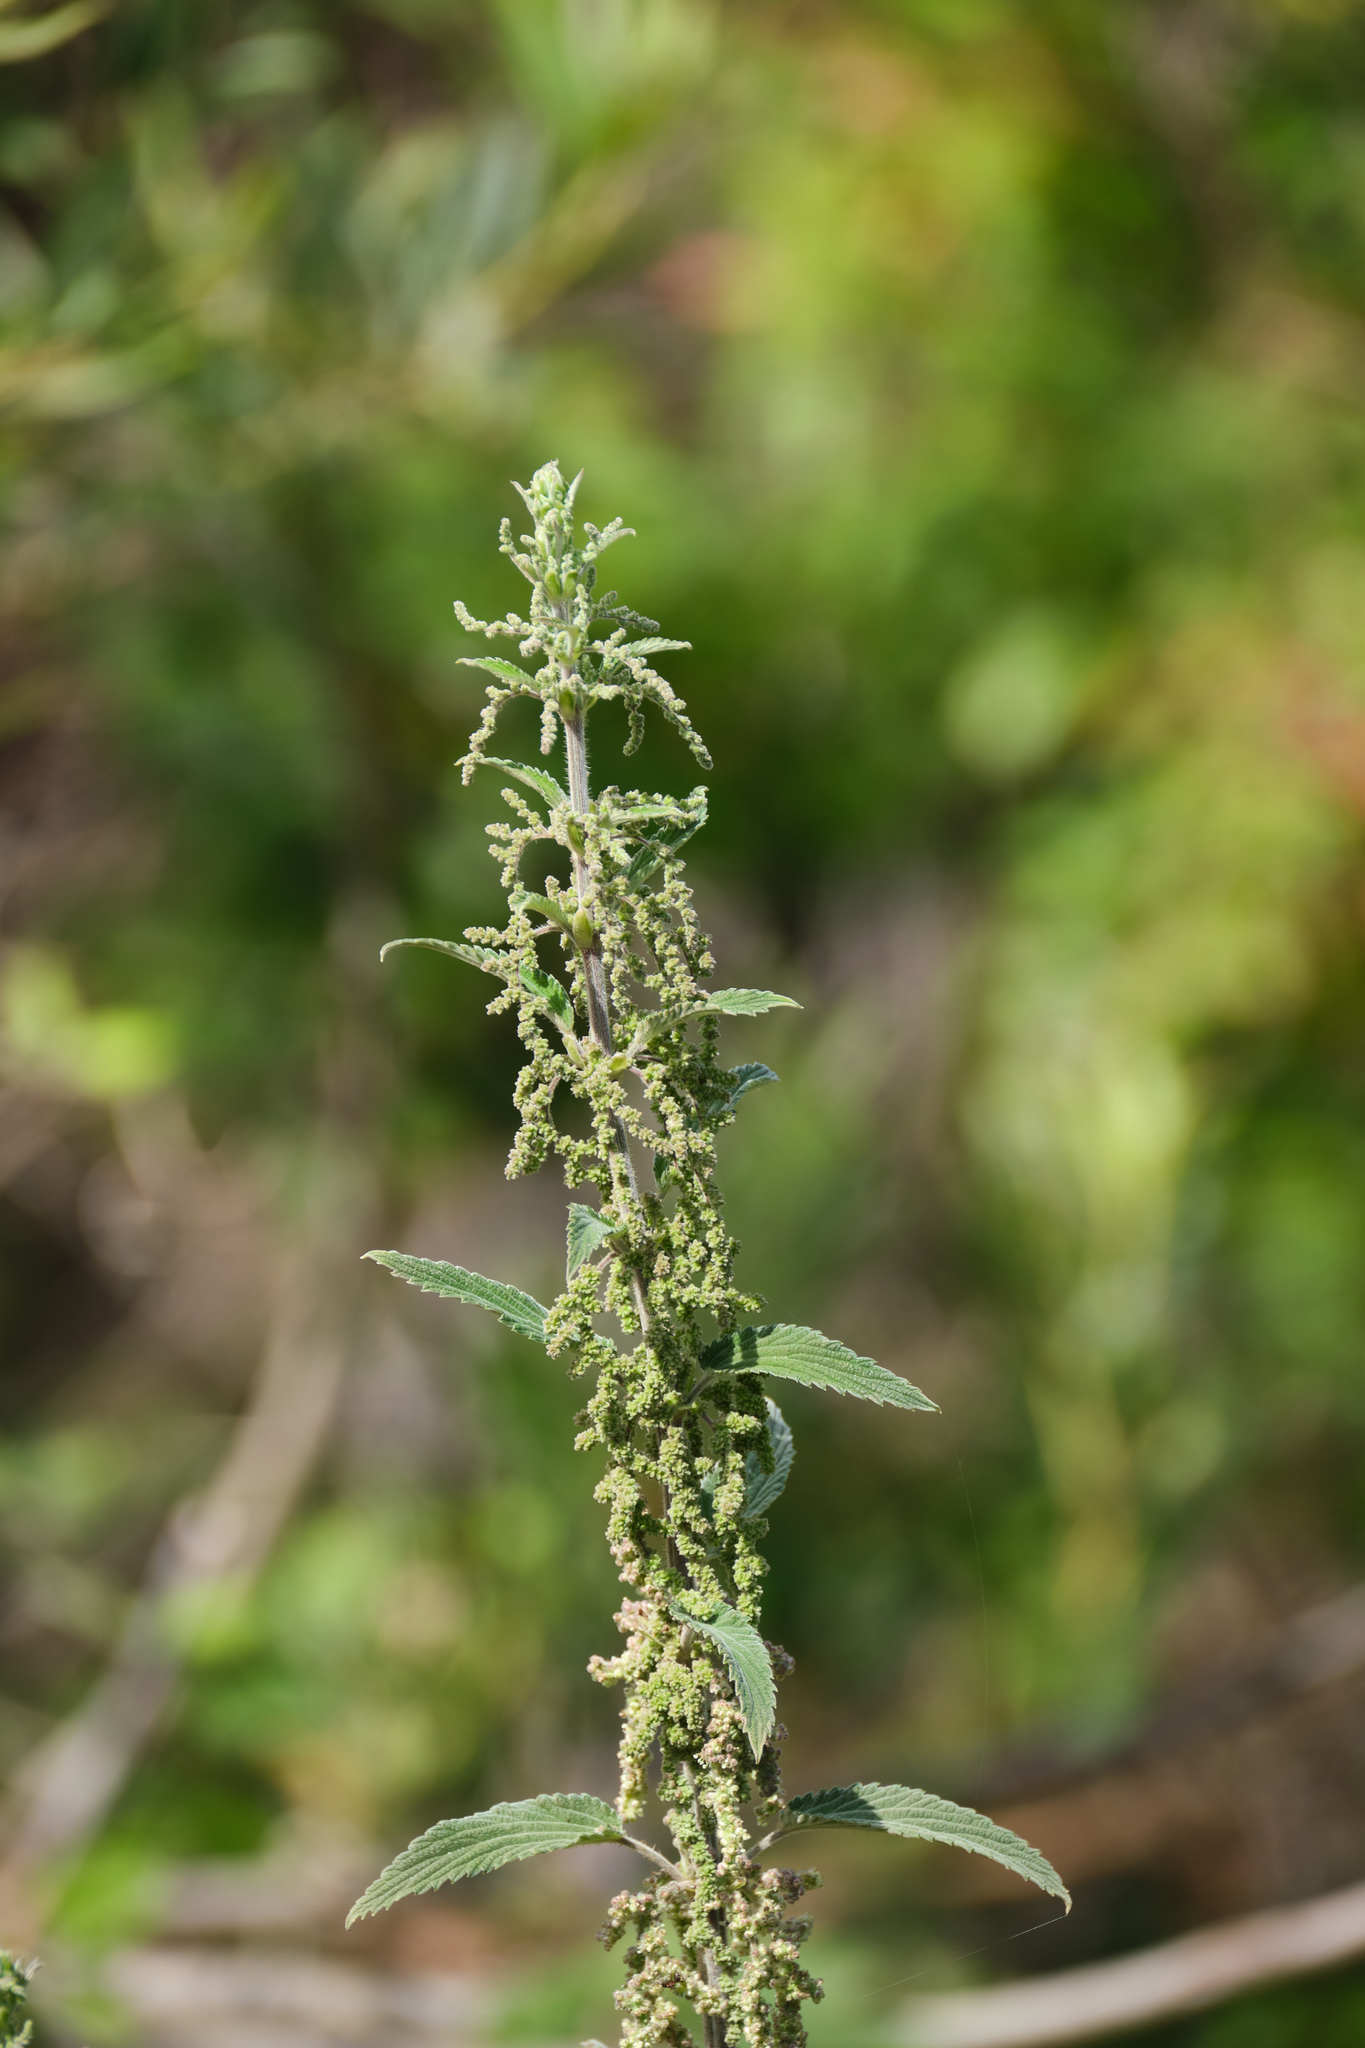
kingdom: Plantae
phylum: Tracheophyta
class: Magnoliopsida
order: Rosales
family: Urticaceae
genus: Urtica
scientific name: Urtica dioica
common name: Common nettle
